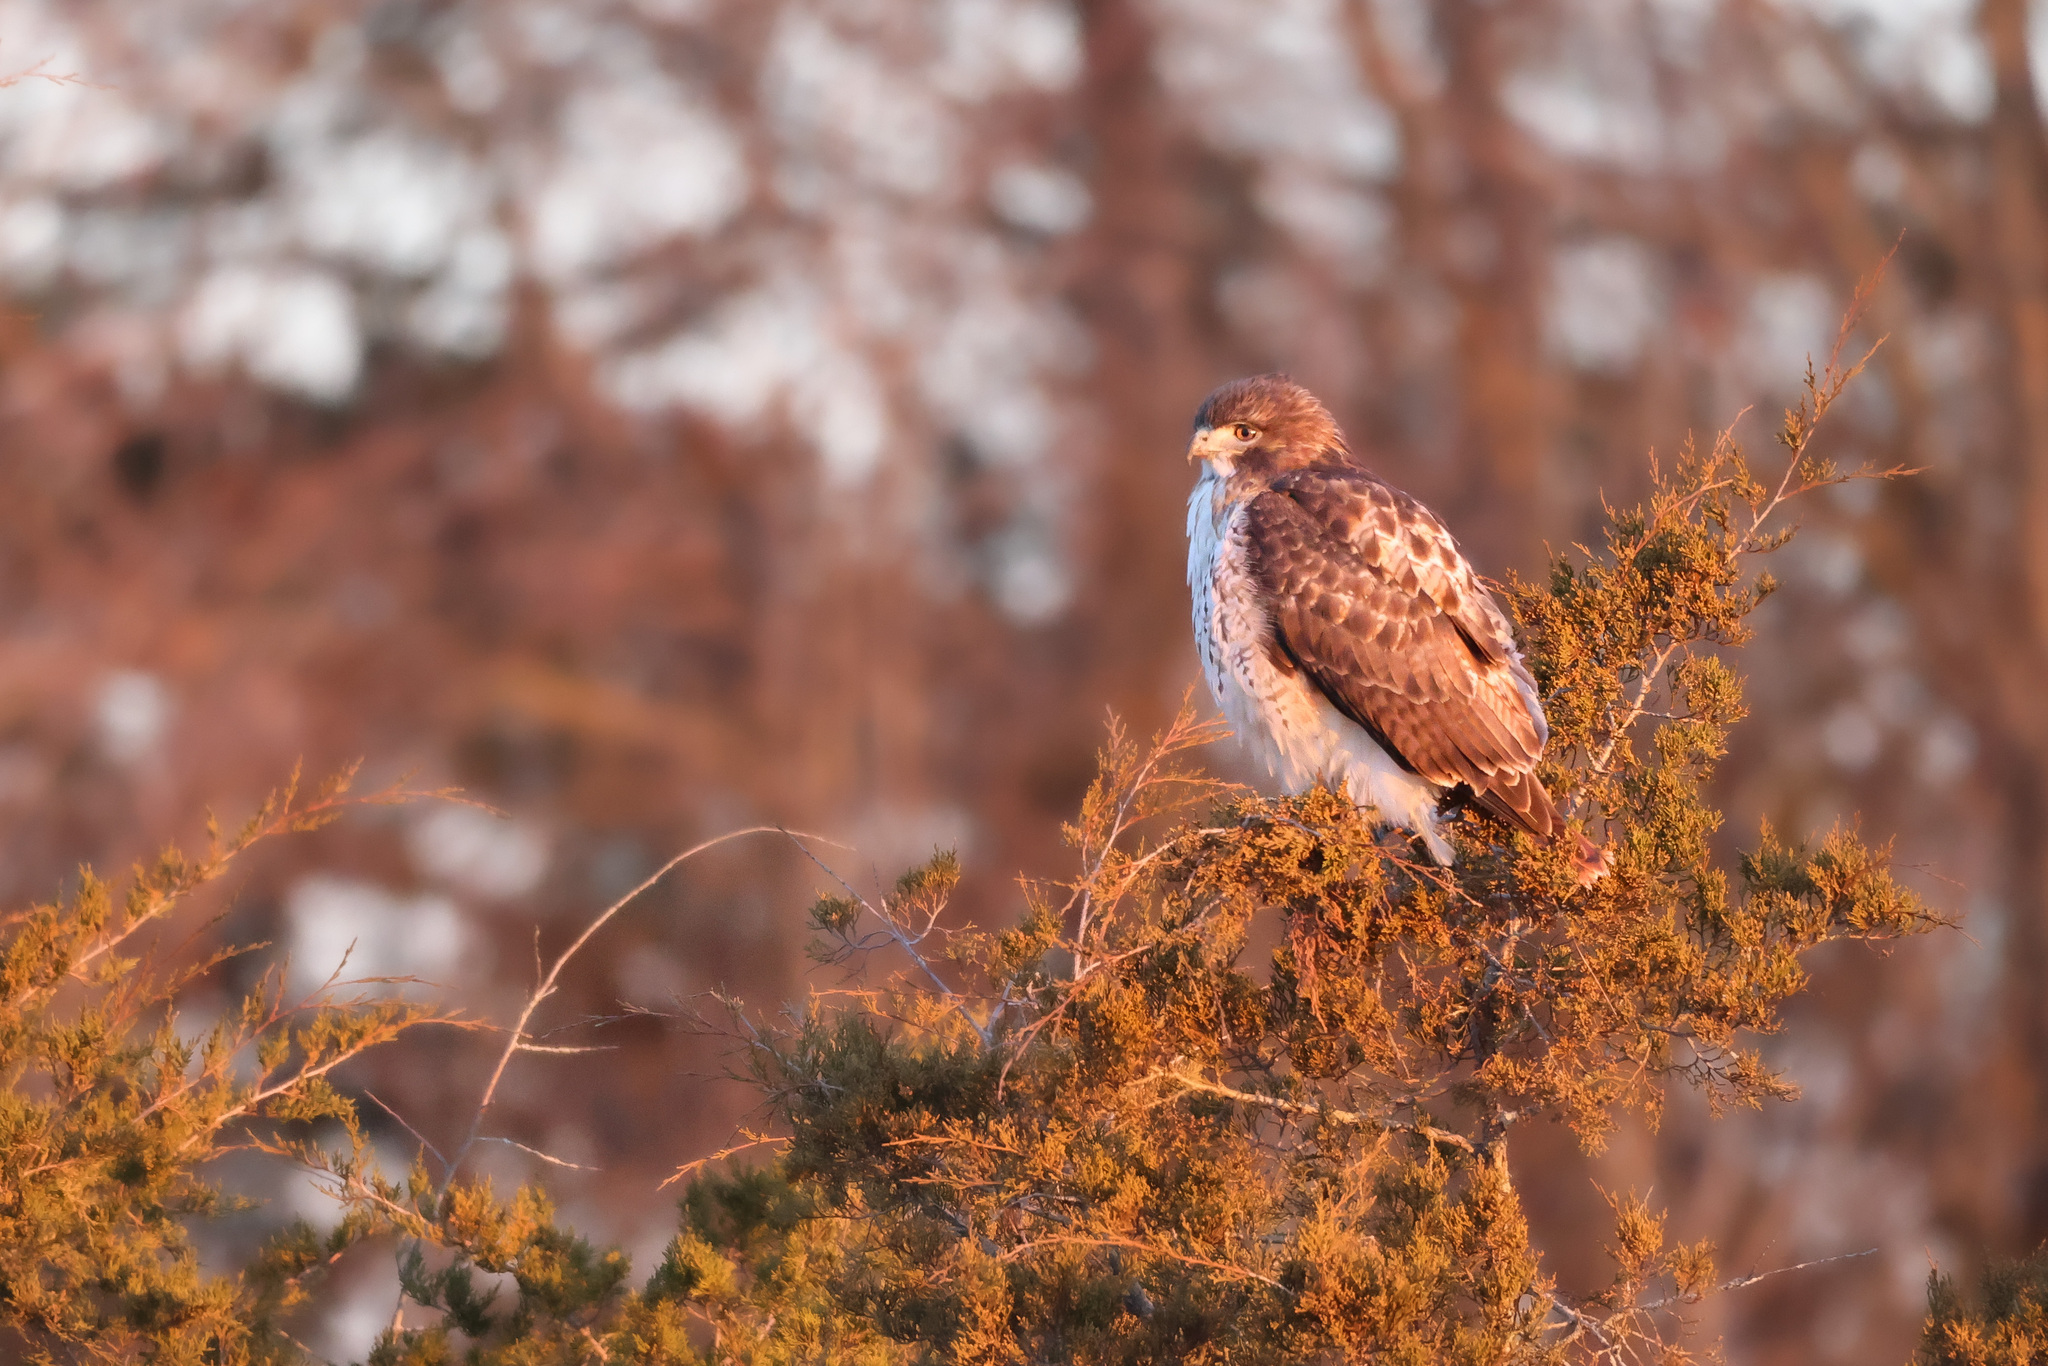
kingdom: Animalia
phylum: Chordata
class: Aves
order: Accipitriformes
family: Accipitridae
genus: Buteo
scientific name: Buteo jamaicensis
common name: Red-tailed hawk
